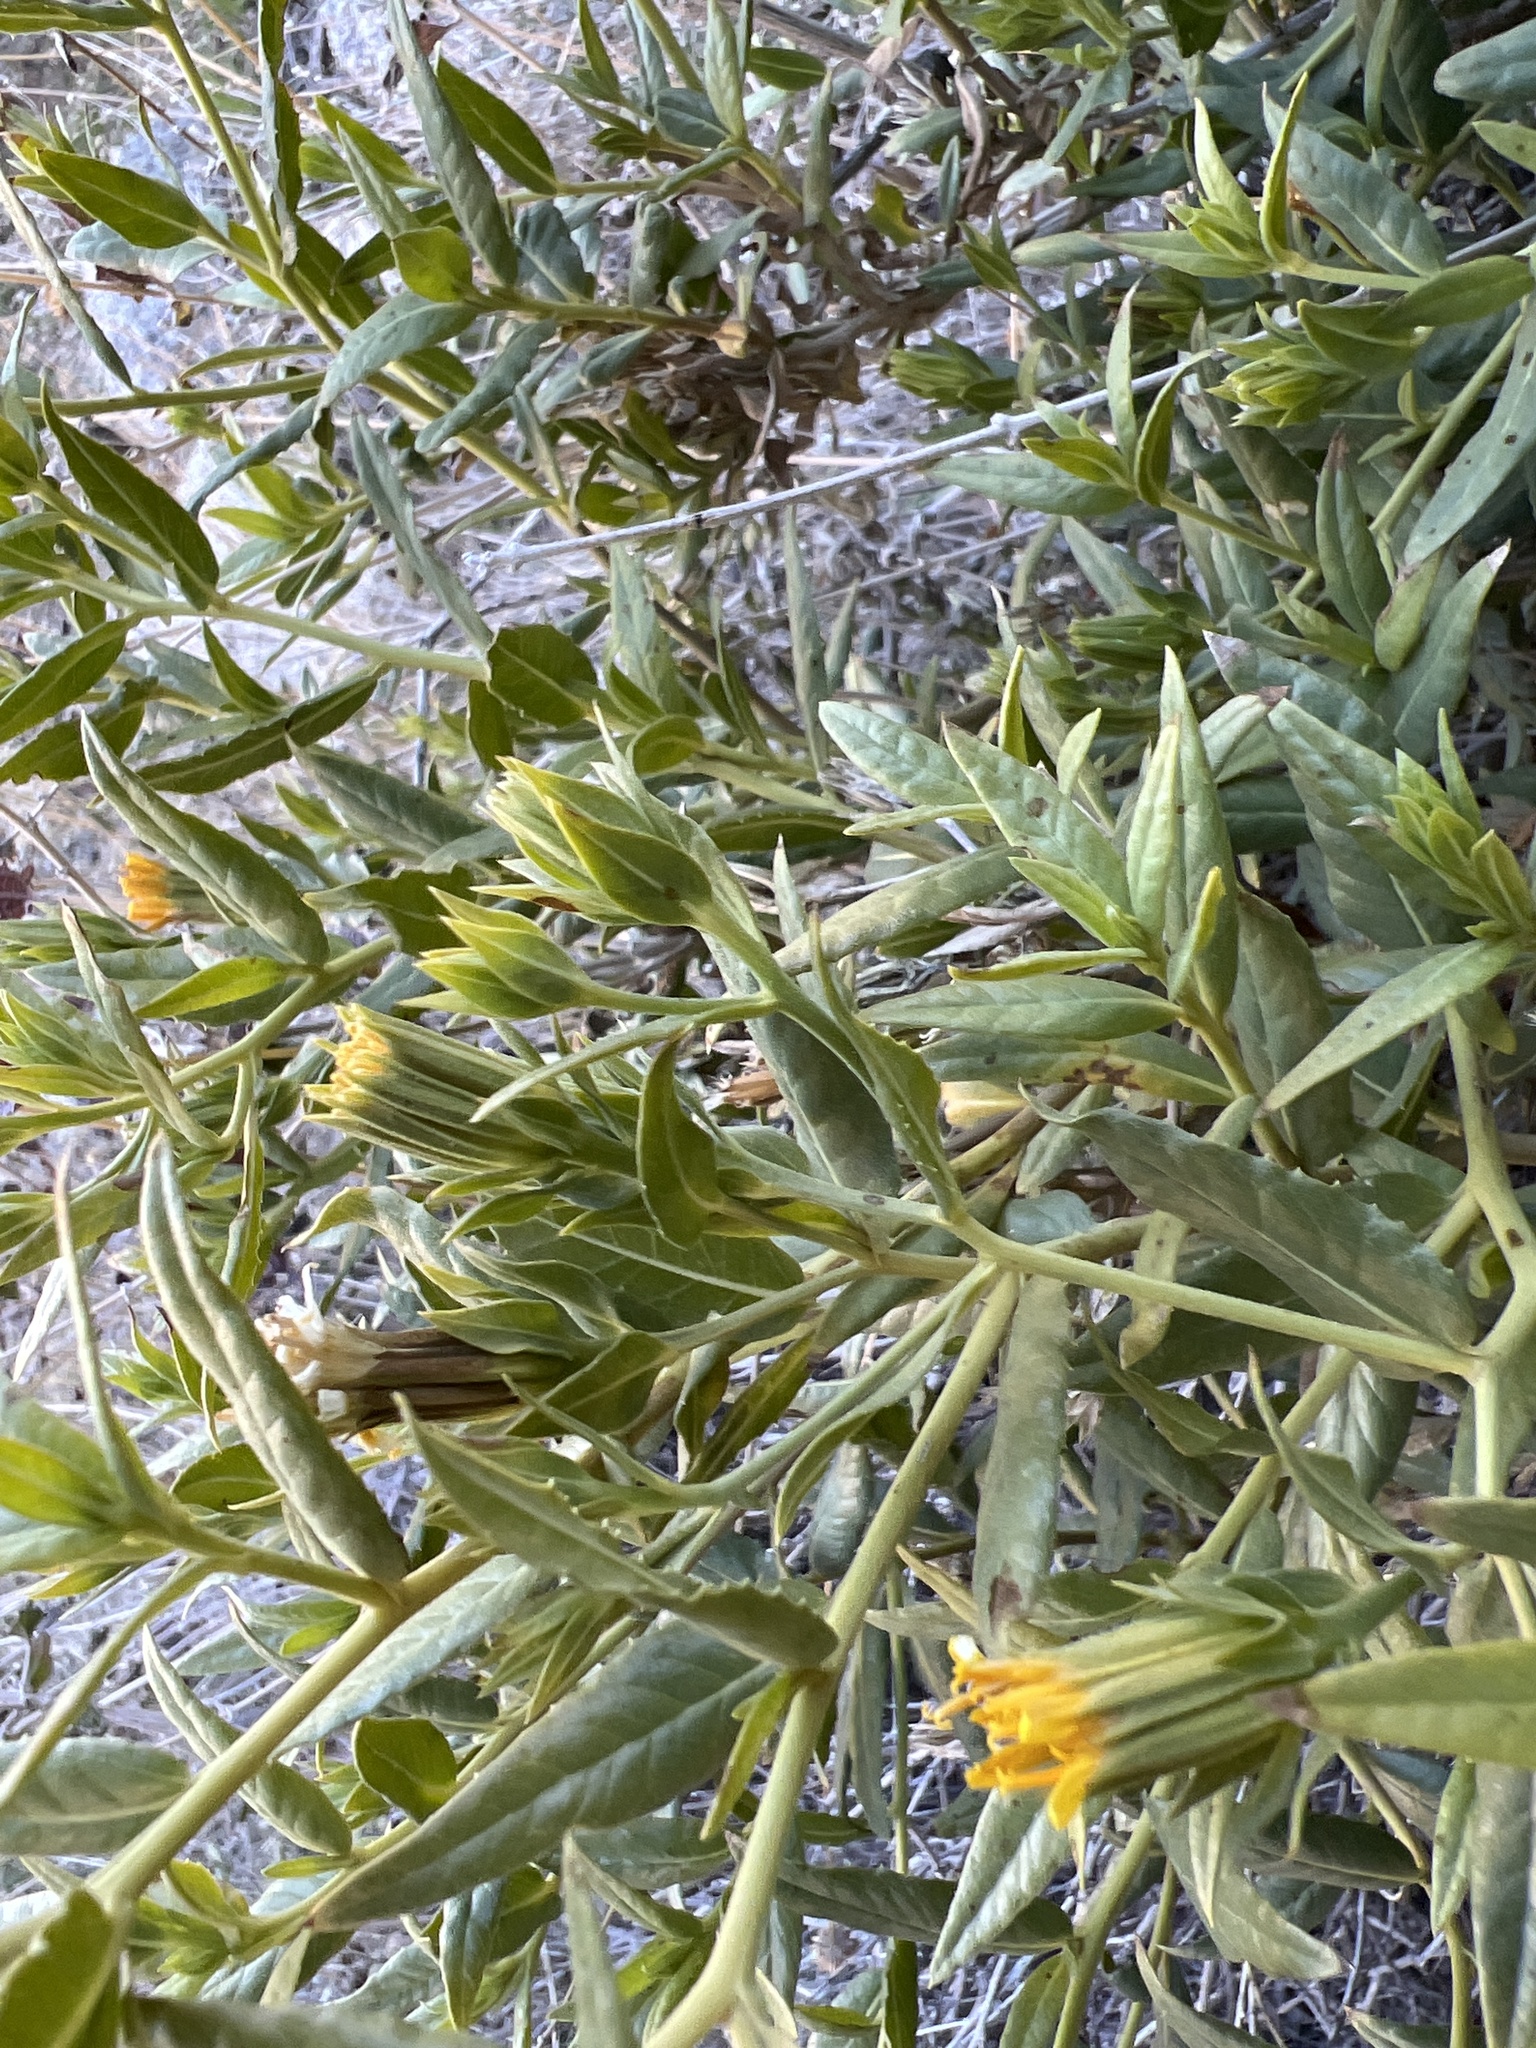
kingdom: Plantae
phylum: Tracheophyta
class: Magnoliopsida
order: Asterales
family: Asteraceae
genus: Trixis
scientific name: Trixis californica
